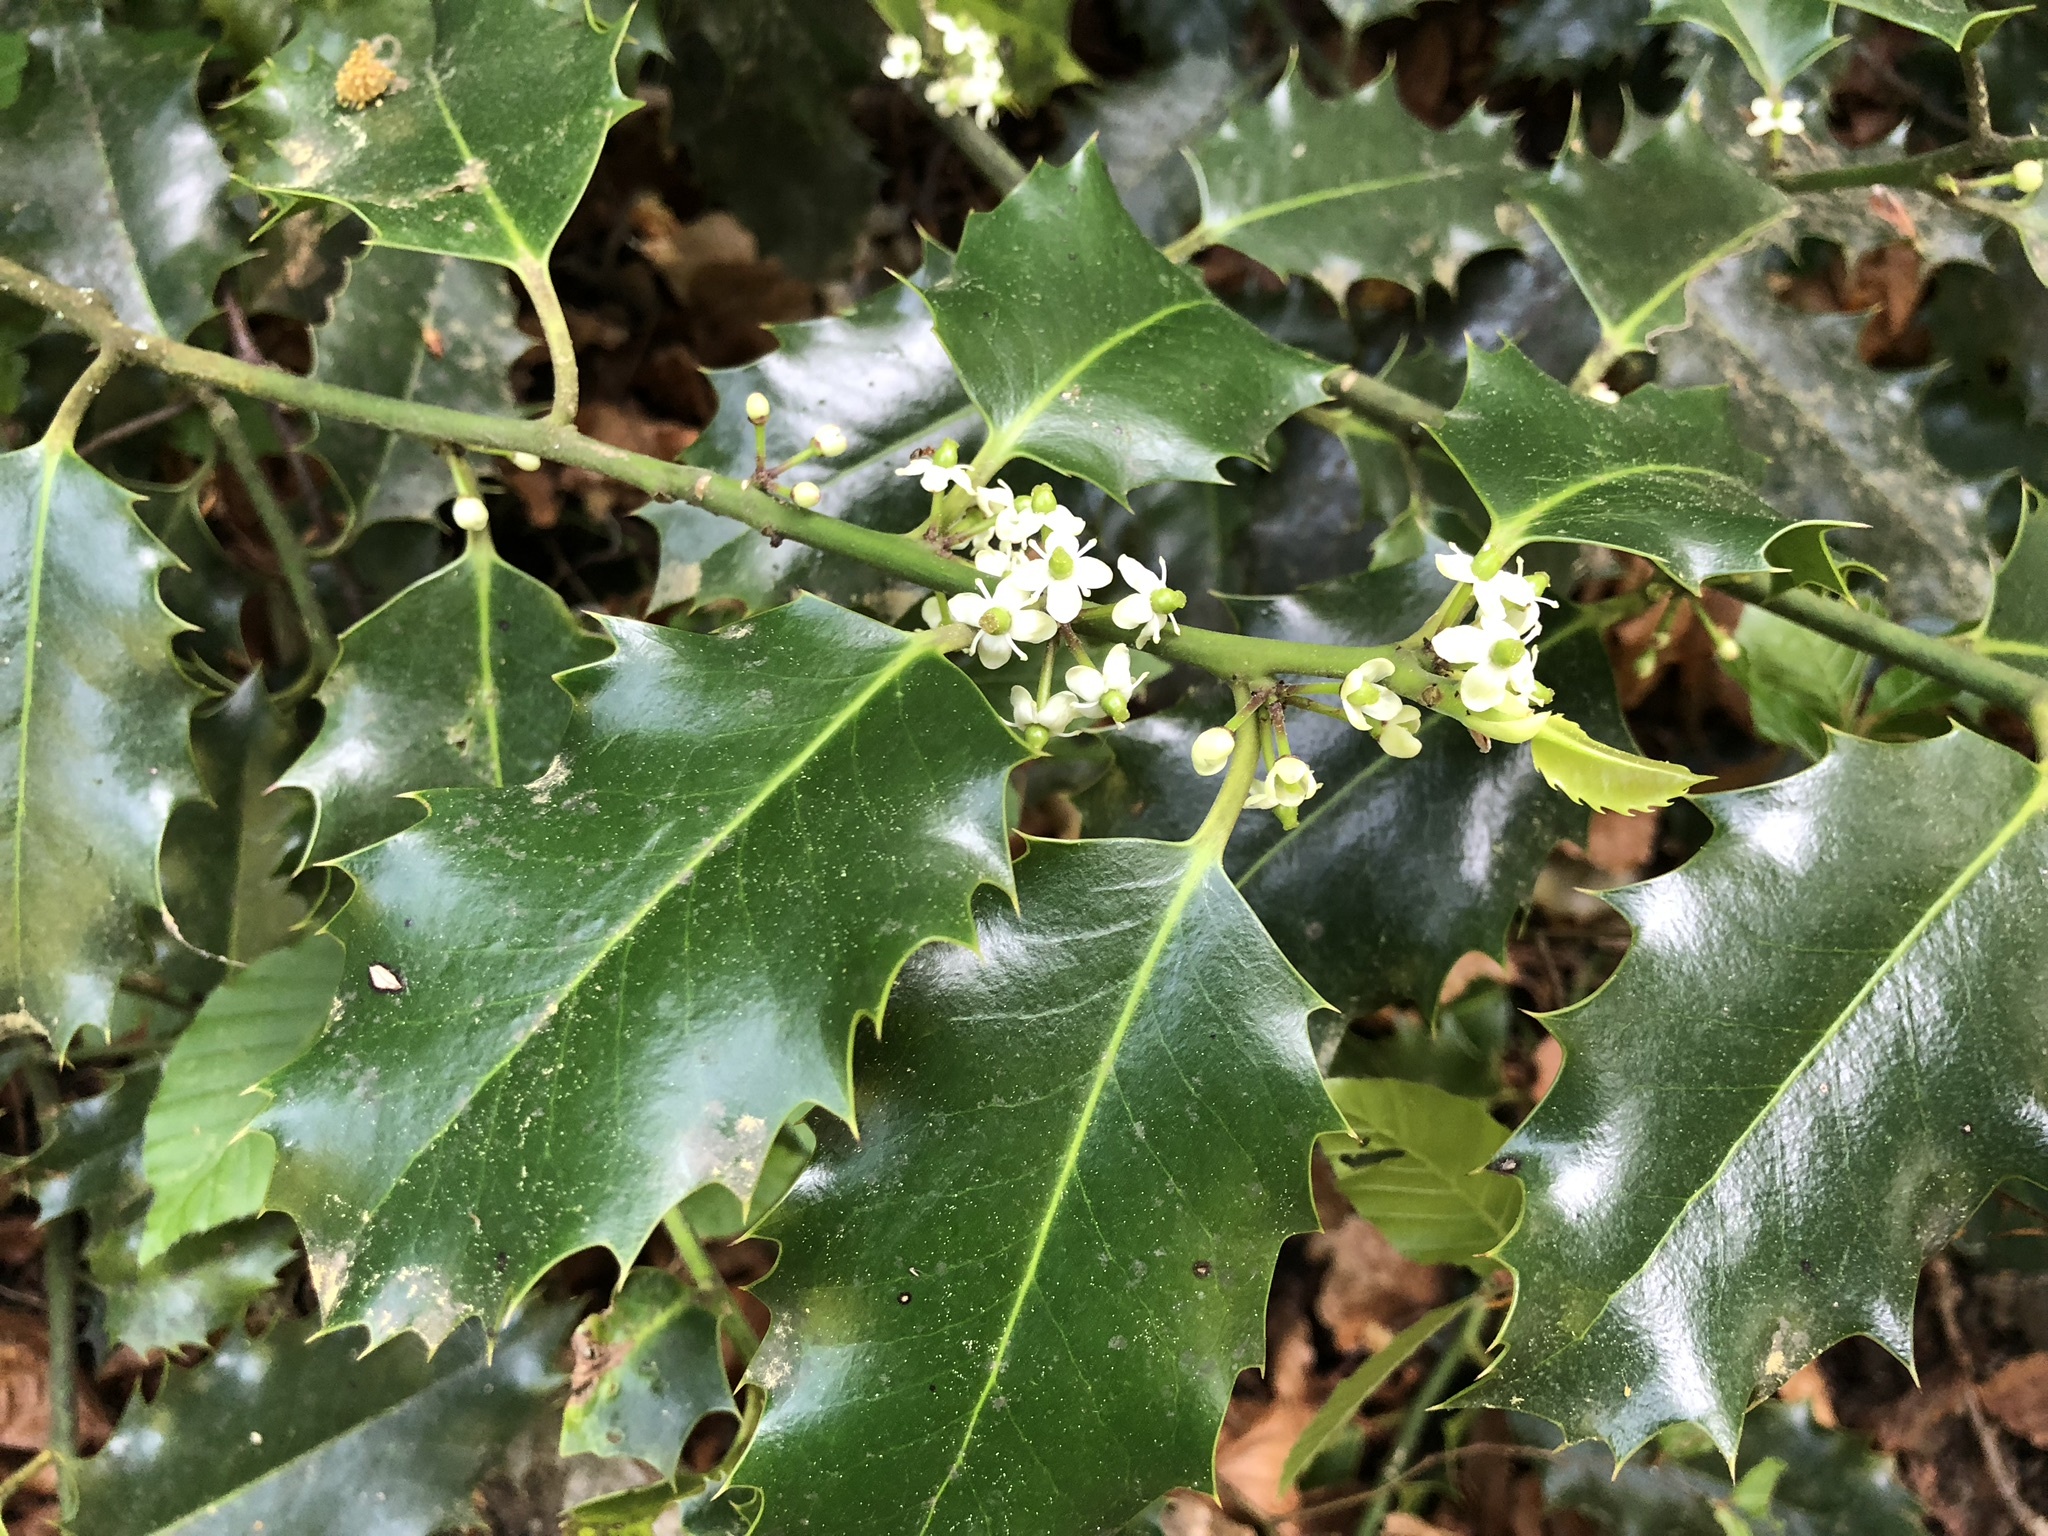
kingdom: Plantae
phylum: Tracheophyta
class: Magnoliopsida
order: Aquifoliales
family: Aquifoliaceae
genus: Ilex
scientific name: Ilex aquifolium
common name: English holly
